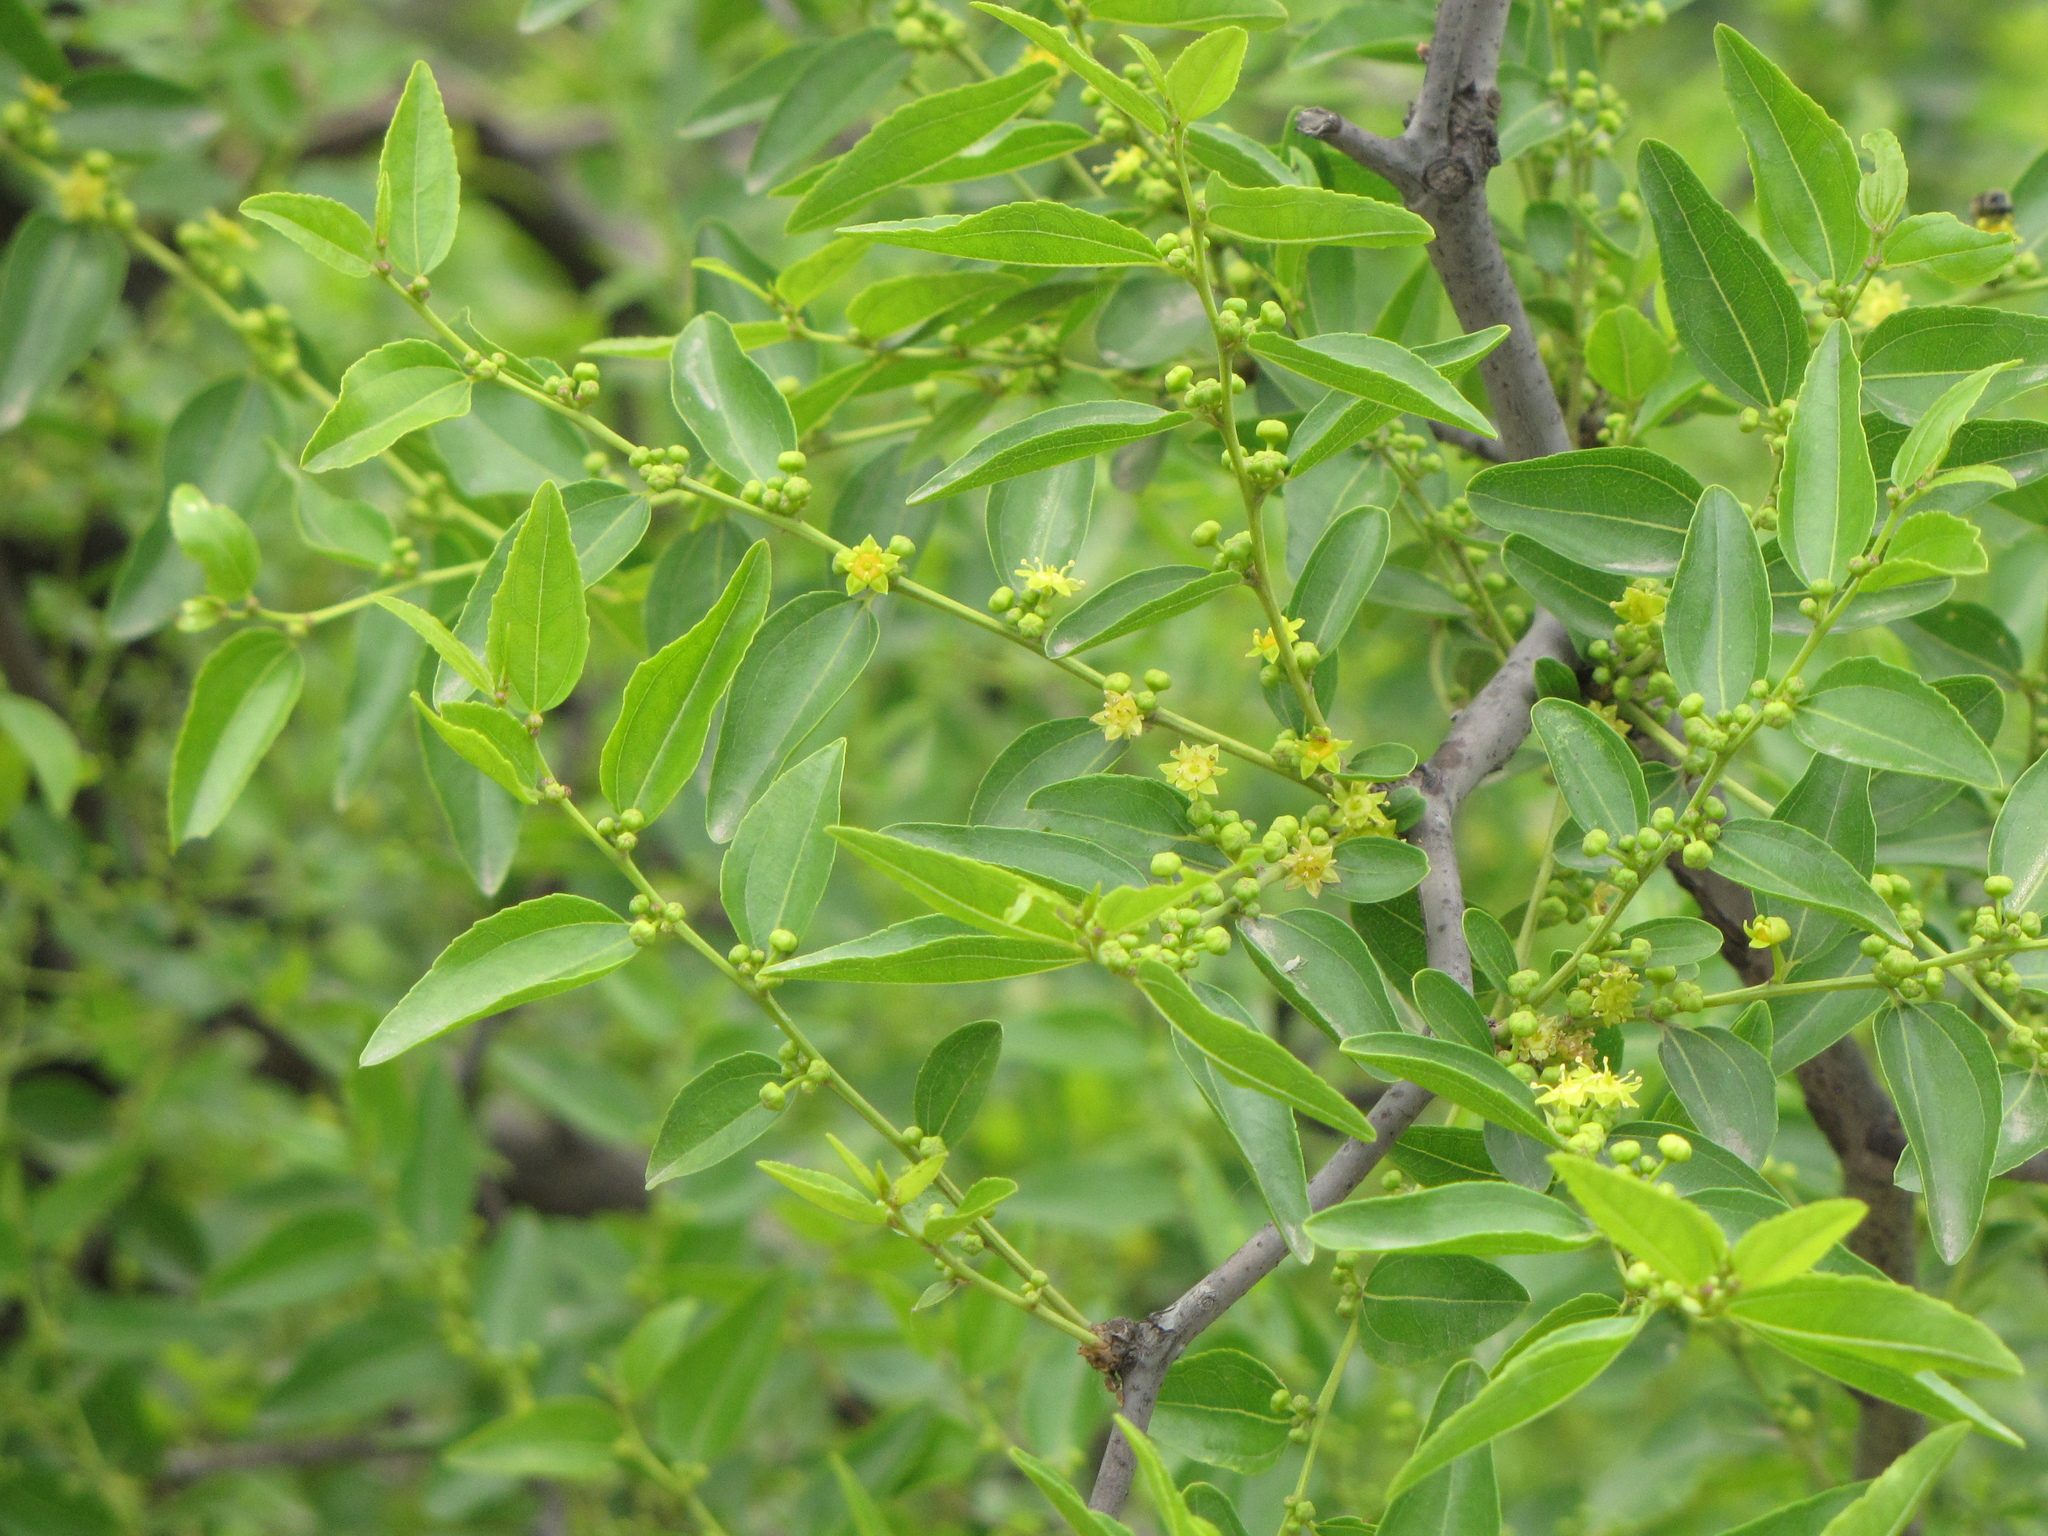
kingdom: Plantae
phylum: Tracheophyta
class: Magnoliopsida
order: Rosales
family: Rhamnaceae
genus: Ziziphus
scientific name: Ziziphus jujuba
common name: Jujube red date
